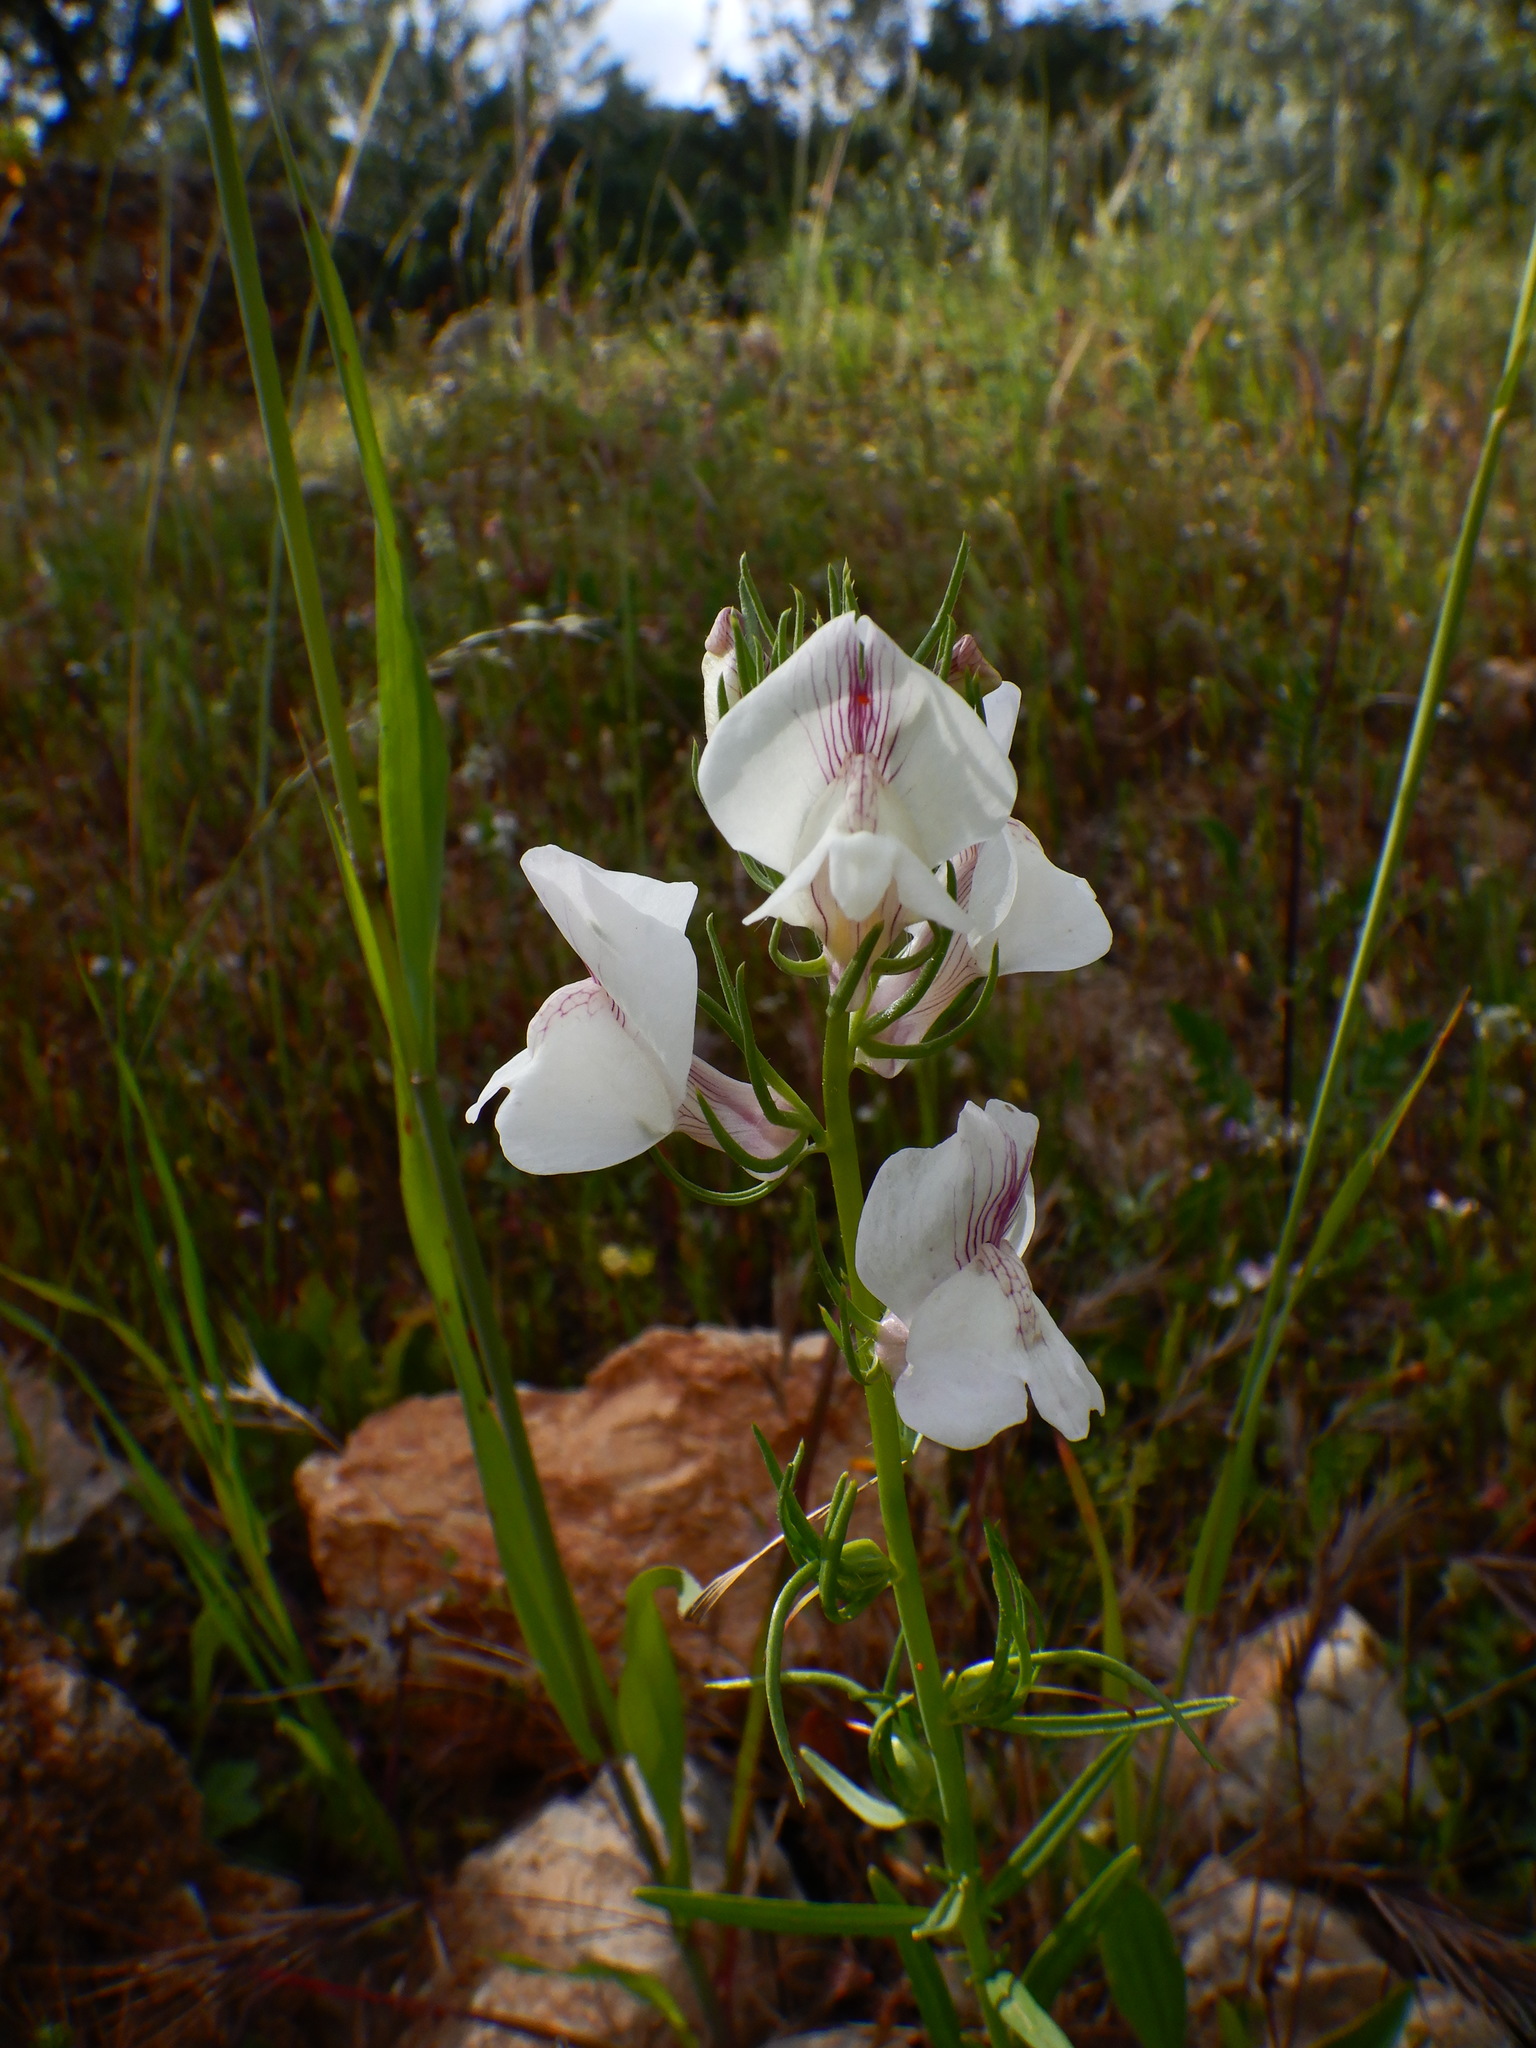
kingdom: Plantae
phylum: Tracheophyta
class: Magnoliopsida
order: Lamiales
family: Plantaginaceae
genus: Misopates
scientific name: Misopates calycinum
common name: Pale weasel's-snout
